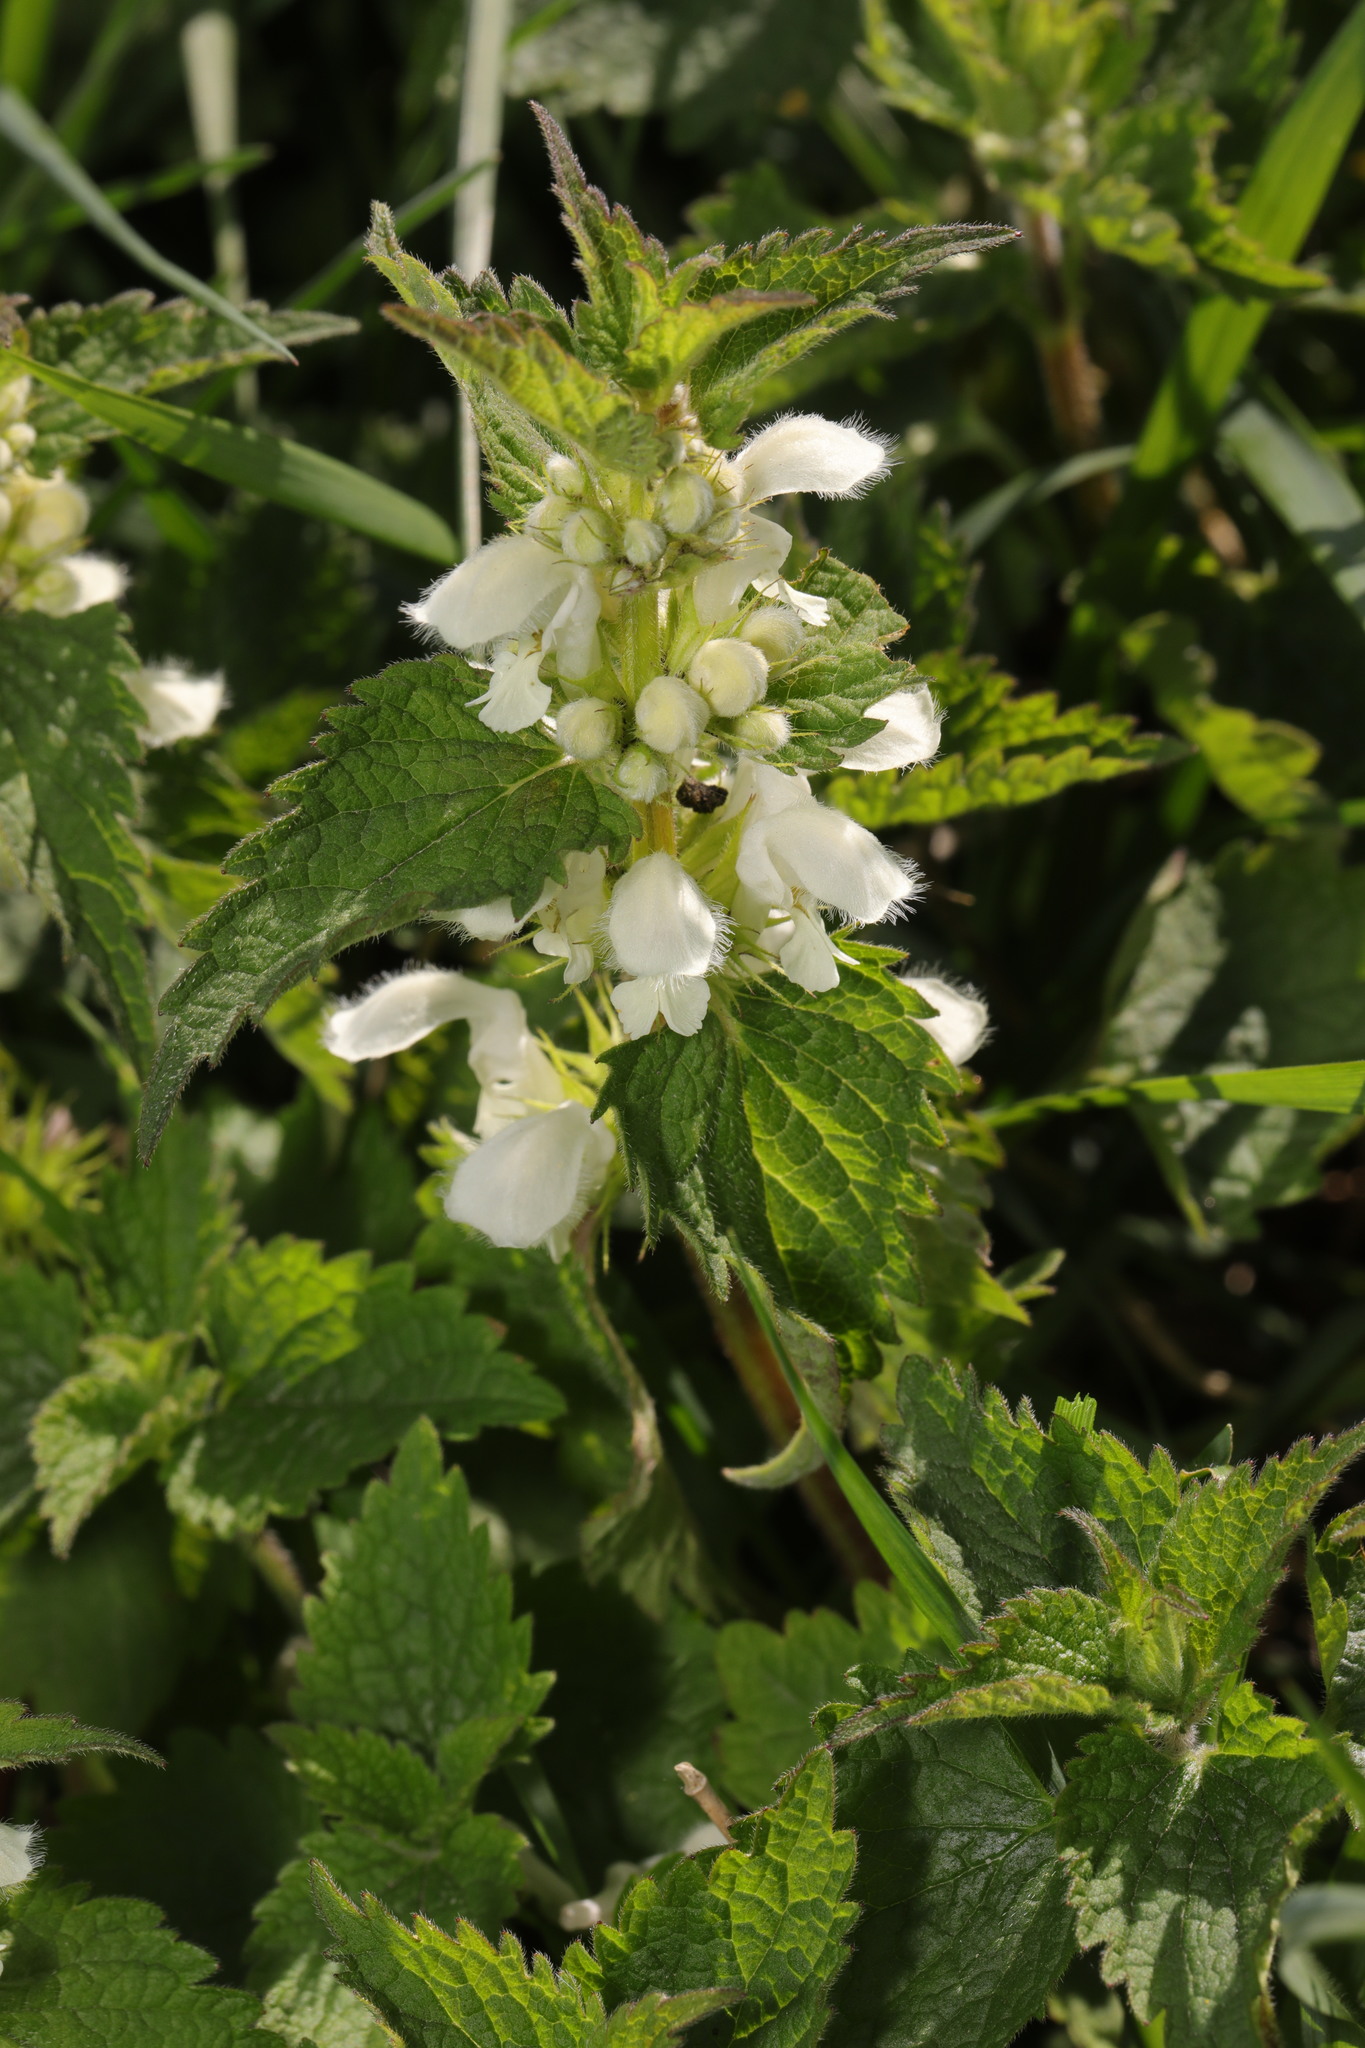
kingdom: Plantae
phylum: Tracheophyta
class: Magnoliopsida
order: Lamiales
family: Lamiaceae
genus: Lamium
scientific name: Lamium album
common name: White dead-nettle
